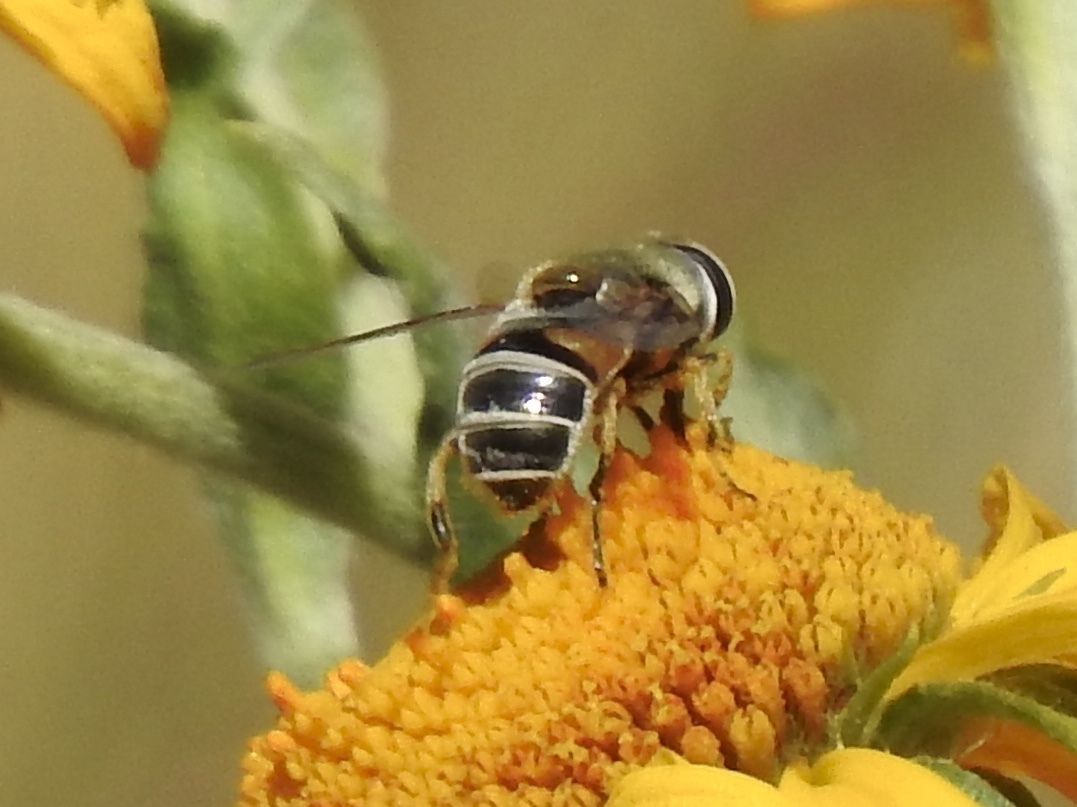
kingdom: Animalia
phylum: Arthropoda
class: Insecta
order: Diptera
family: Syrphidae
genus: Eristalis
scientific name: Eristalis stipator
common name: Yellow-shouldered drone fly
